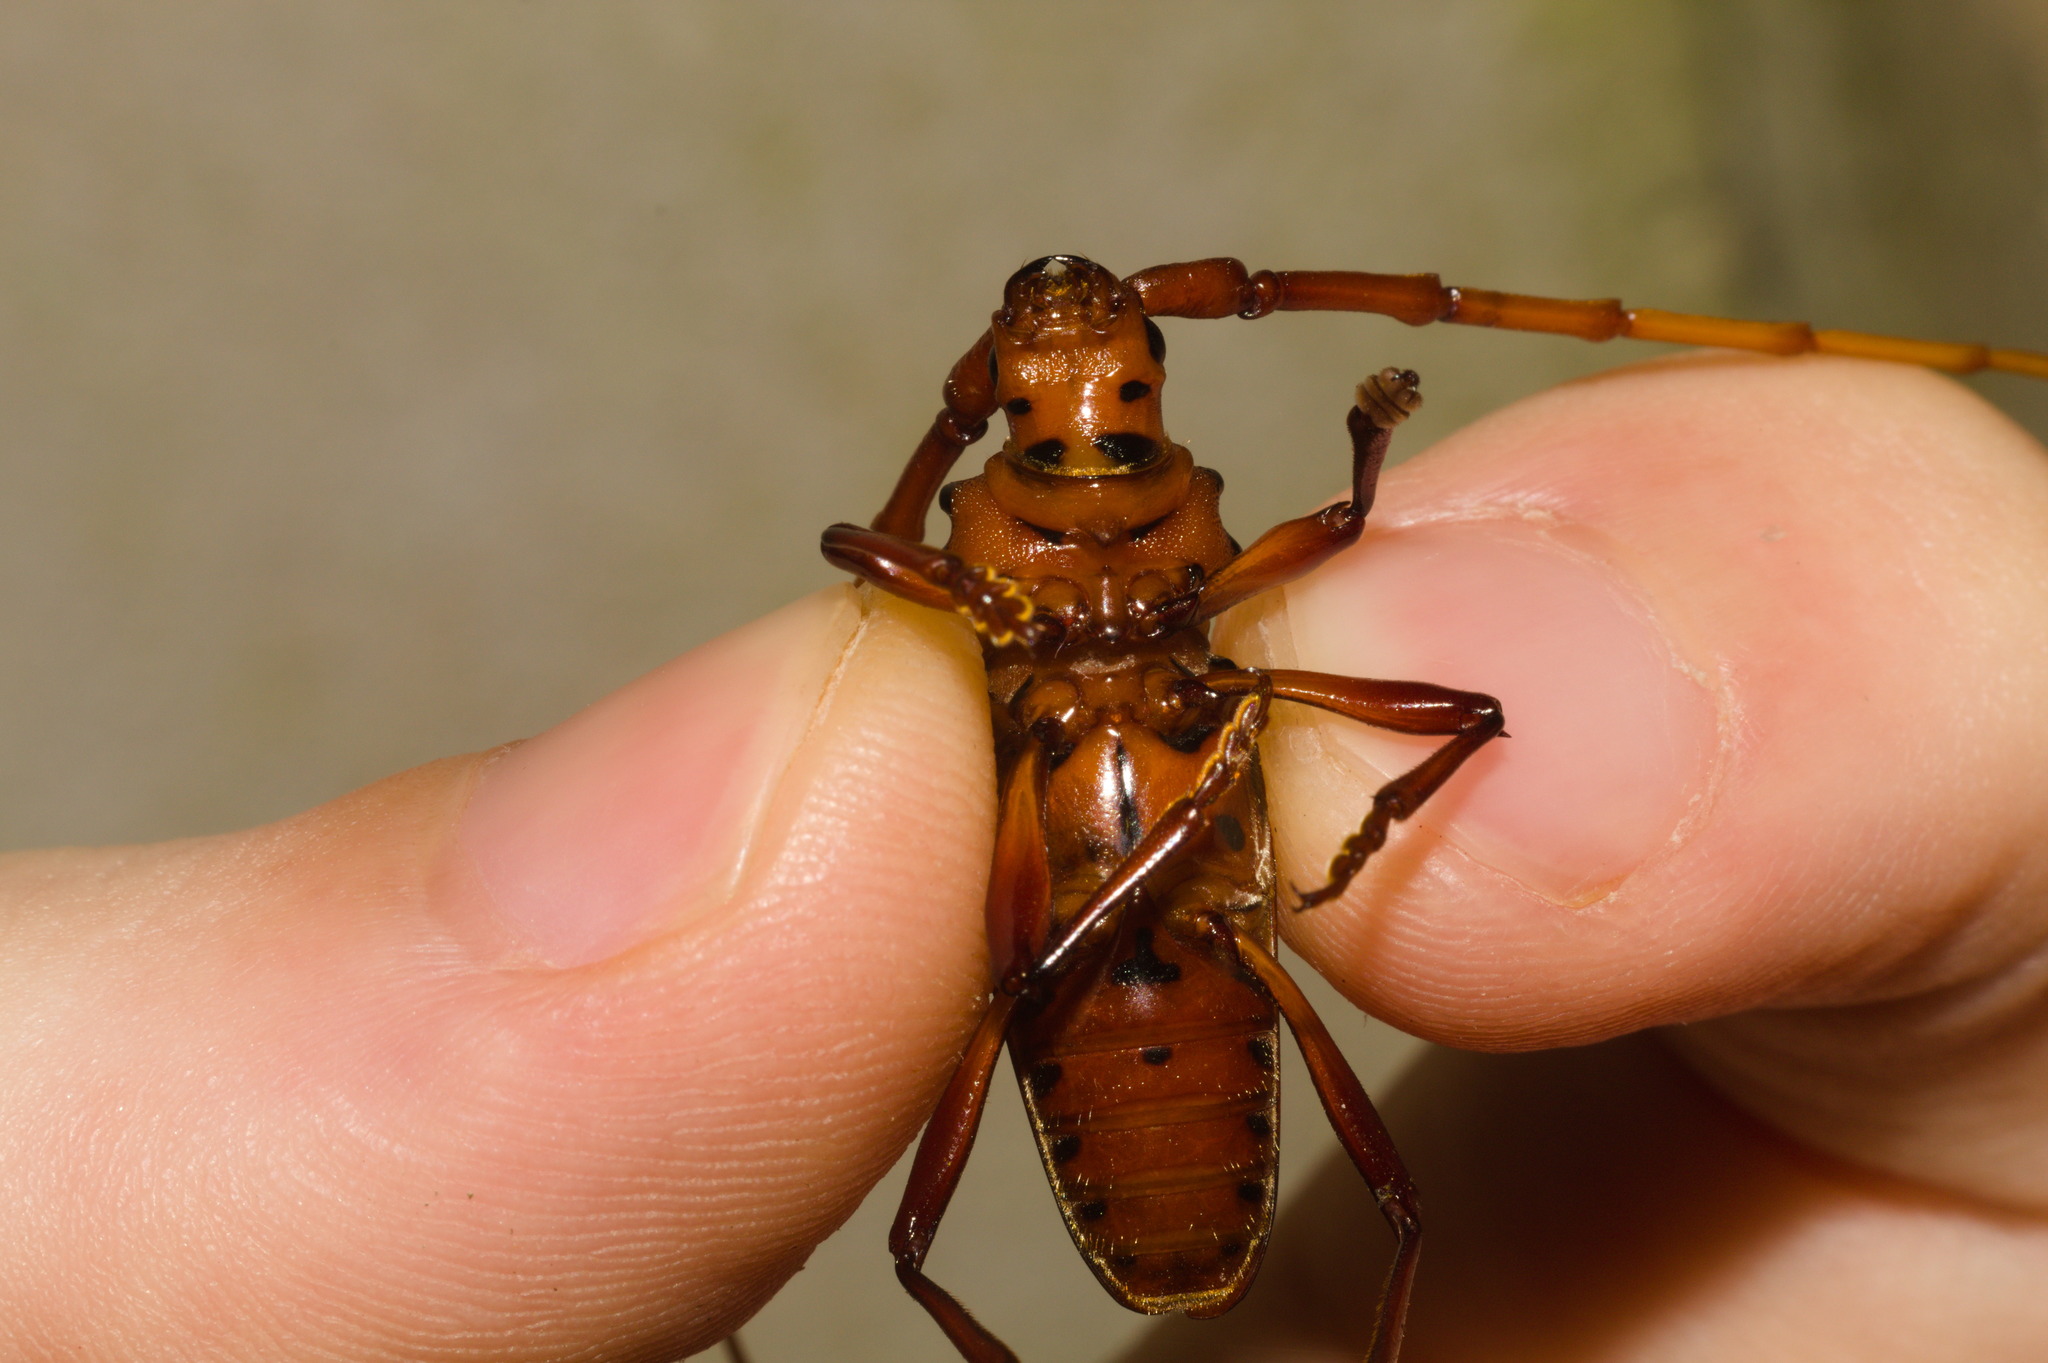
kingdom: Animalia
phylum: Arthropoda
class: Insecta
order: Coleoptera
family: Cerambycidae
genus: Chydarteres
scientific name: Chydarteres striatus
